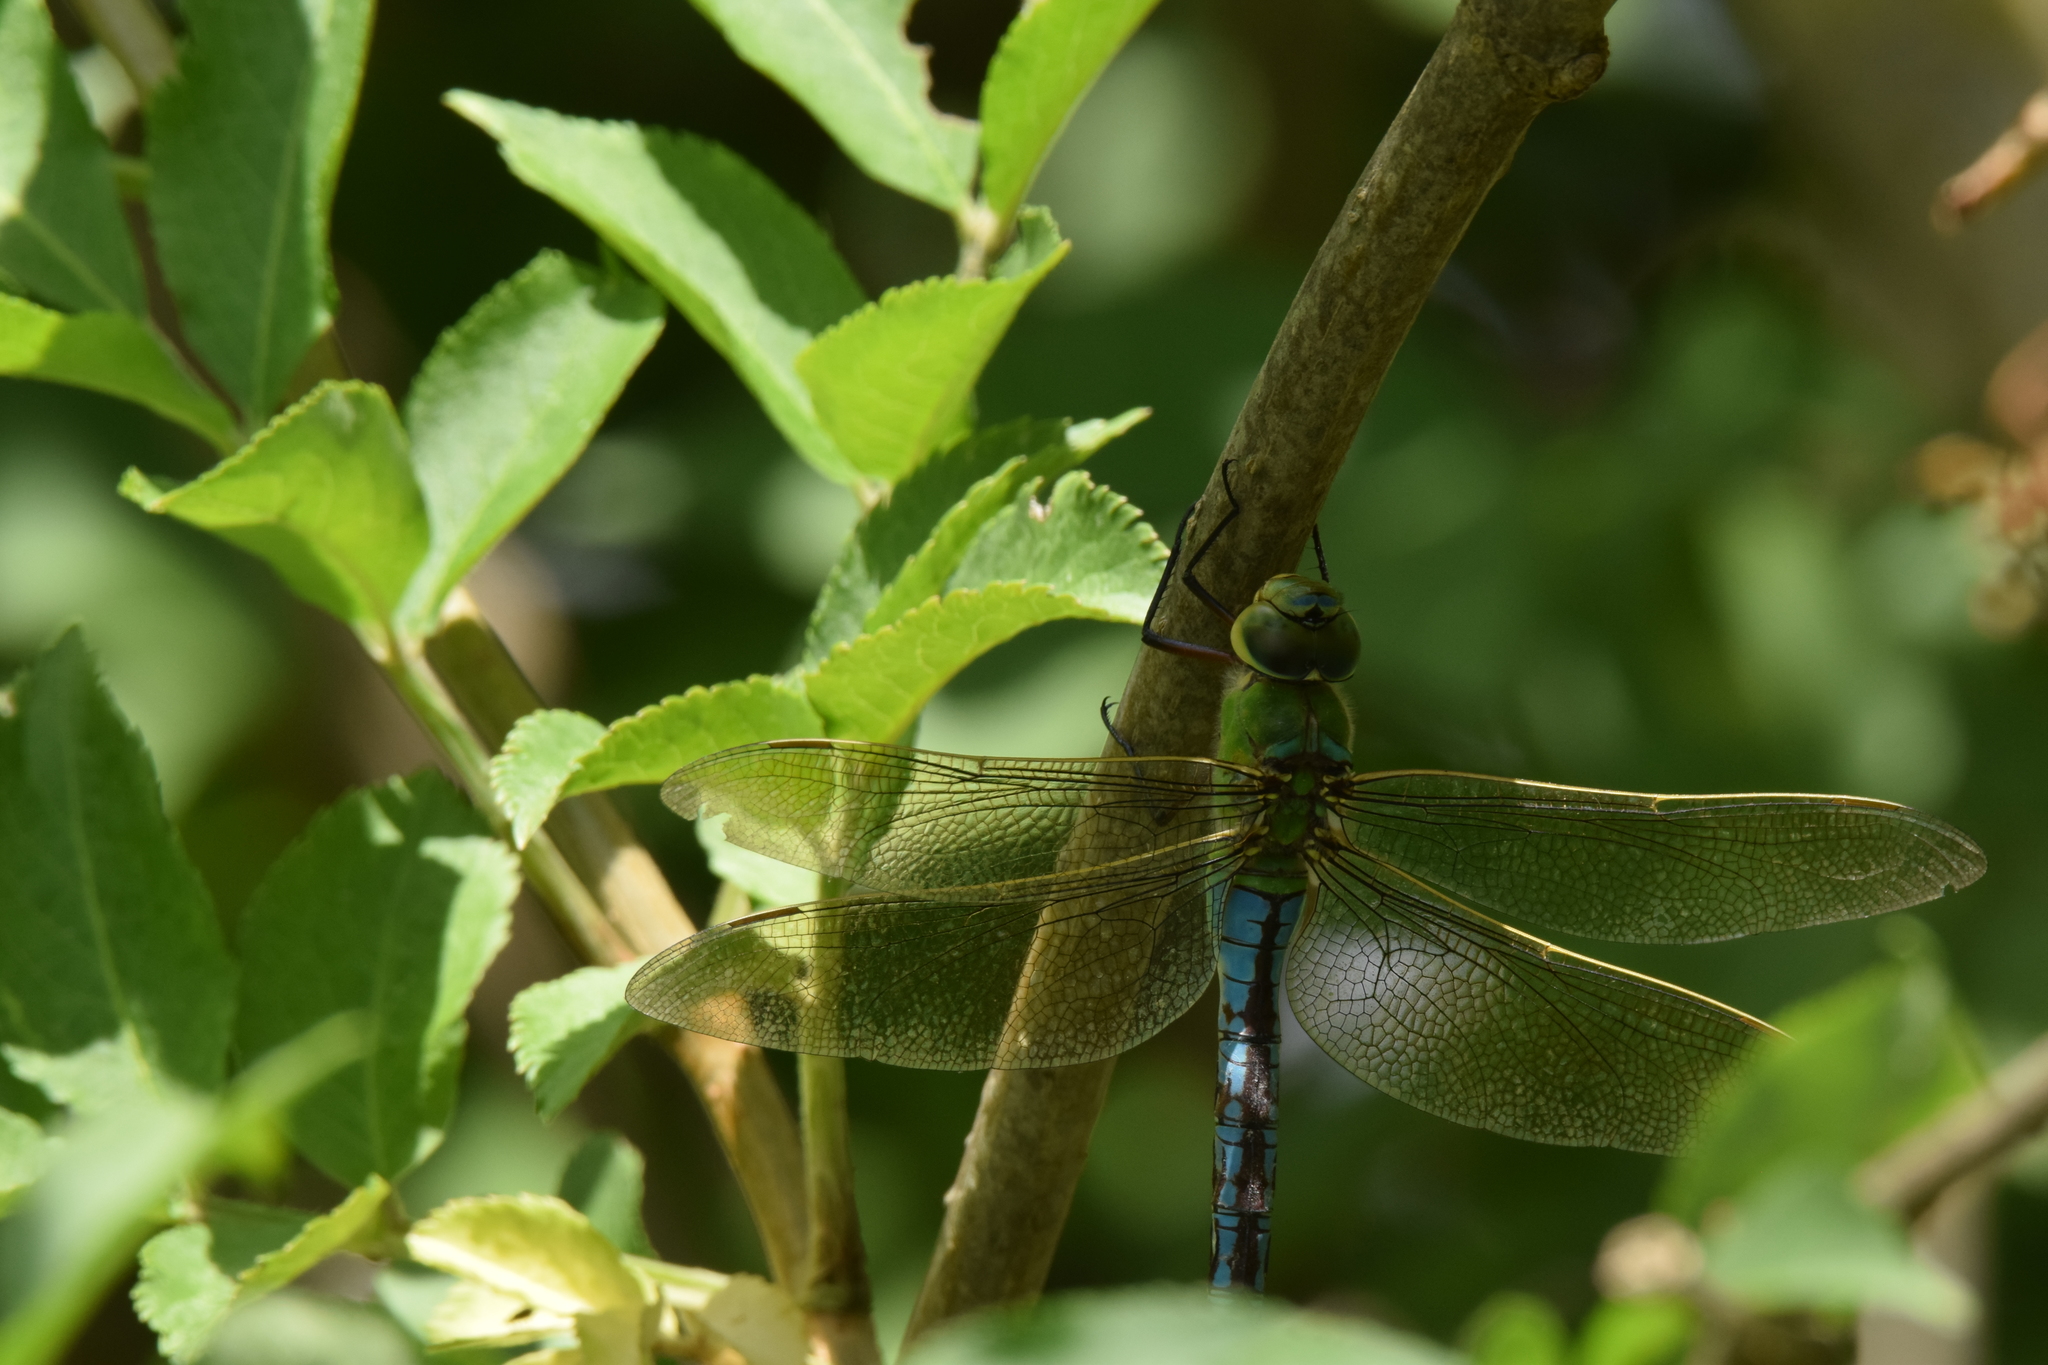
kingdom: Animalia
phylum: Arthropoda
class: Insecta
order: Odonata
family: Aeshnidae
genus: Anax
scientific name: Anax imperator
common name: Emperor dragonfly
